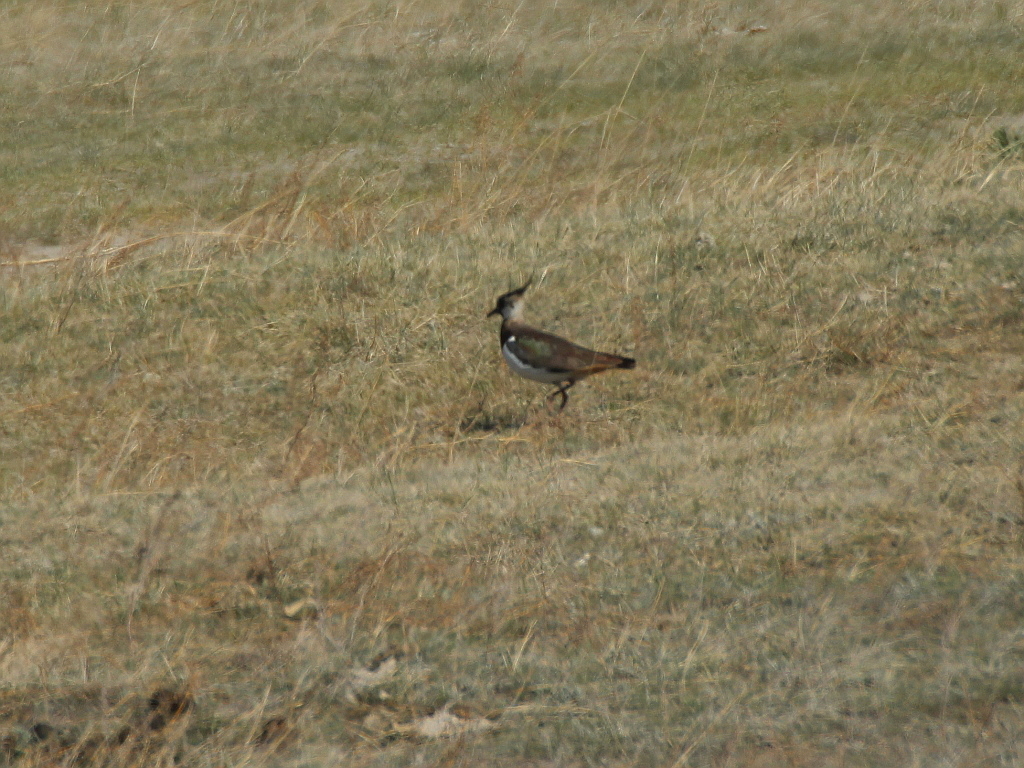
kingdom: Animalia
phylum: Chordata
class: Aves
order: Charadriiformes
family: Charadriidae
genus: Vanellus
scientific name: Vanellus vanellus
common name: Northern lapwing
